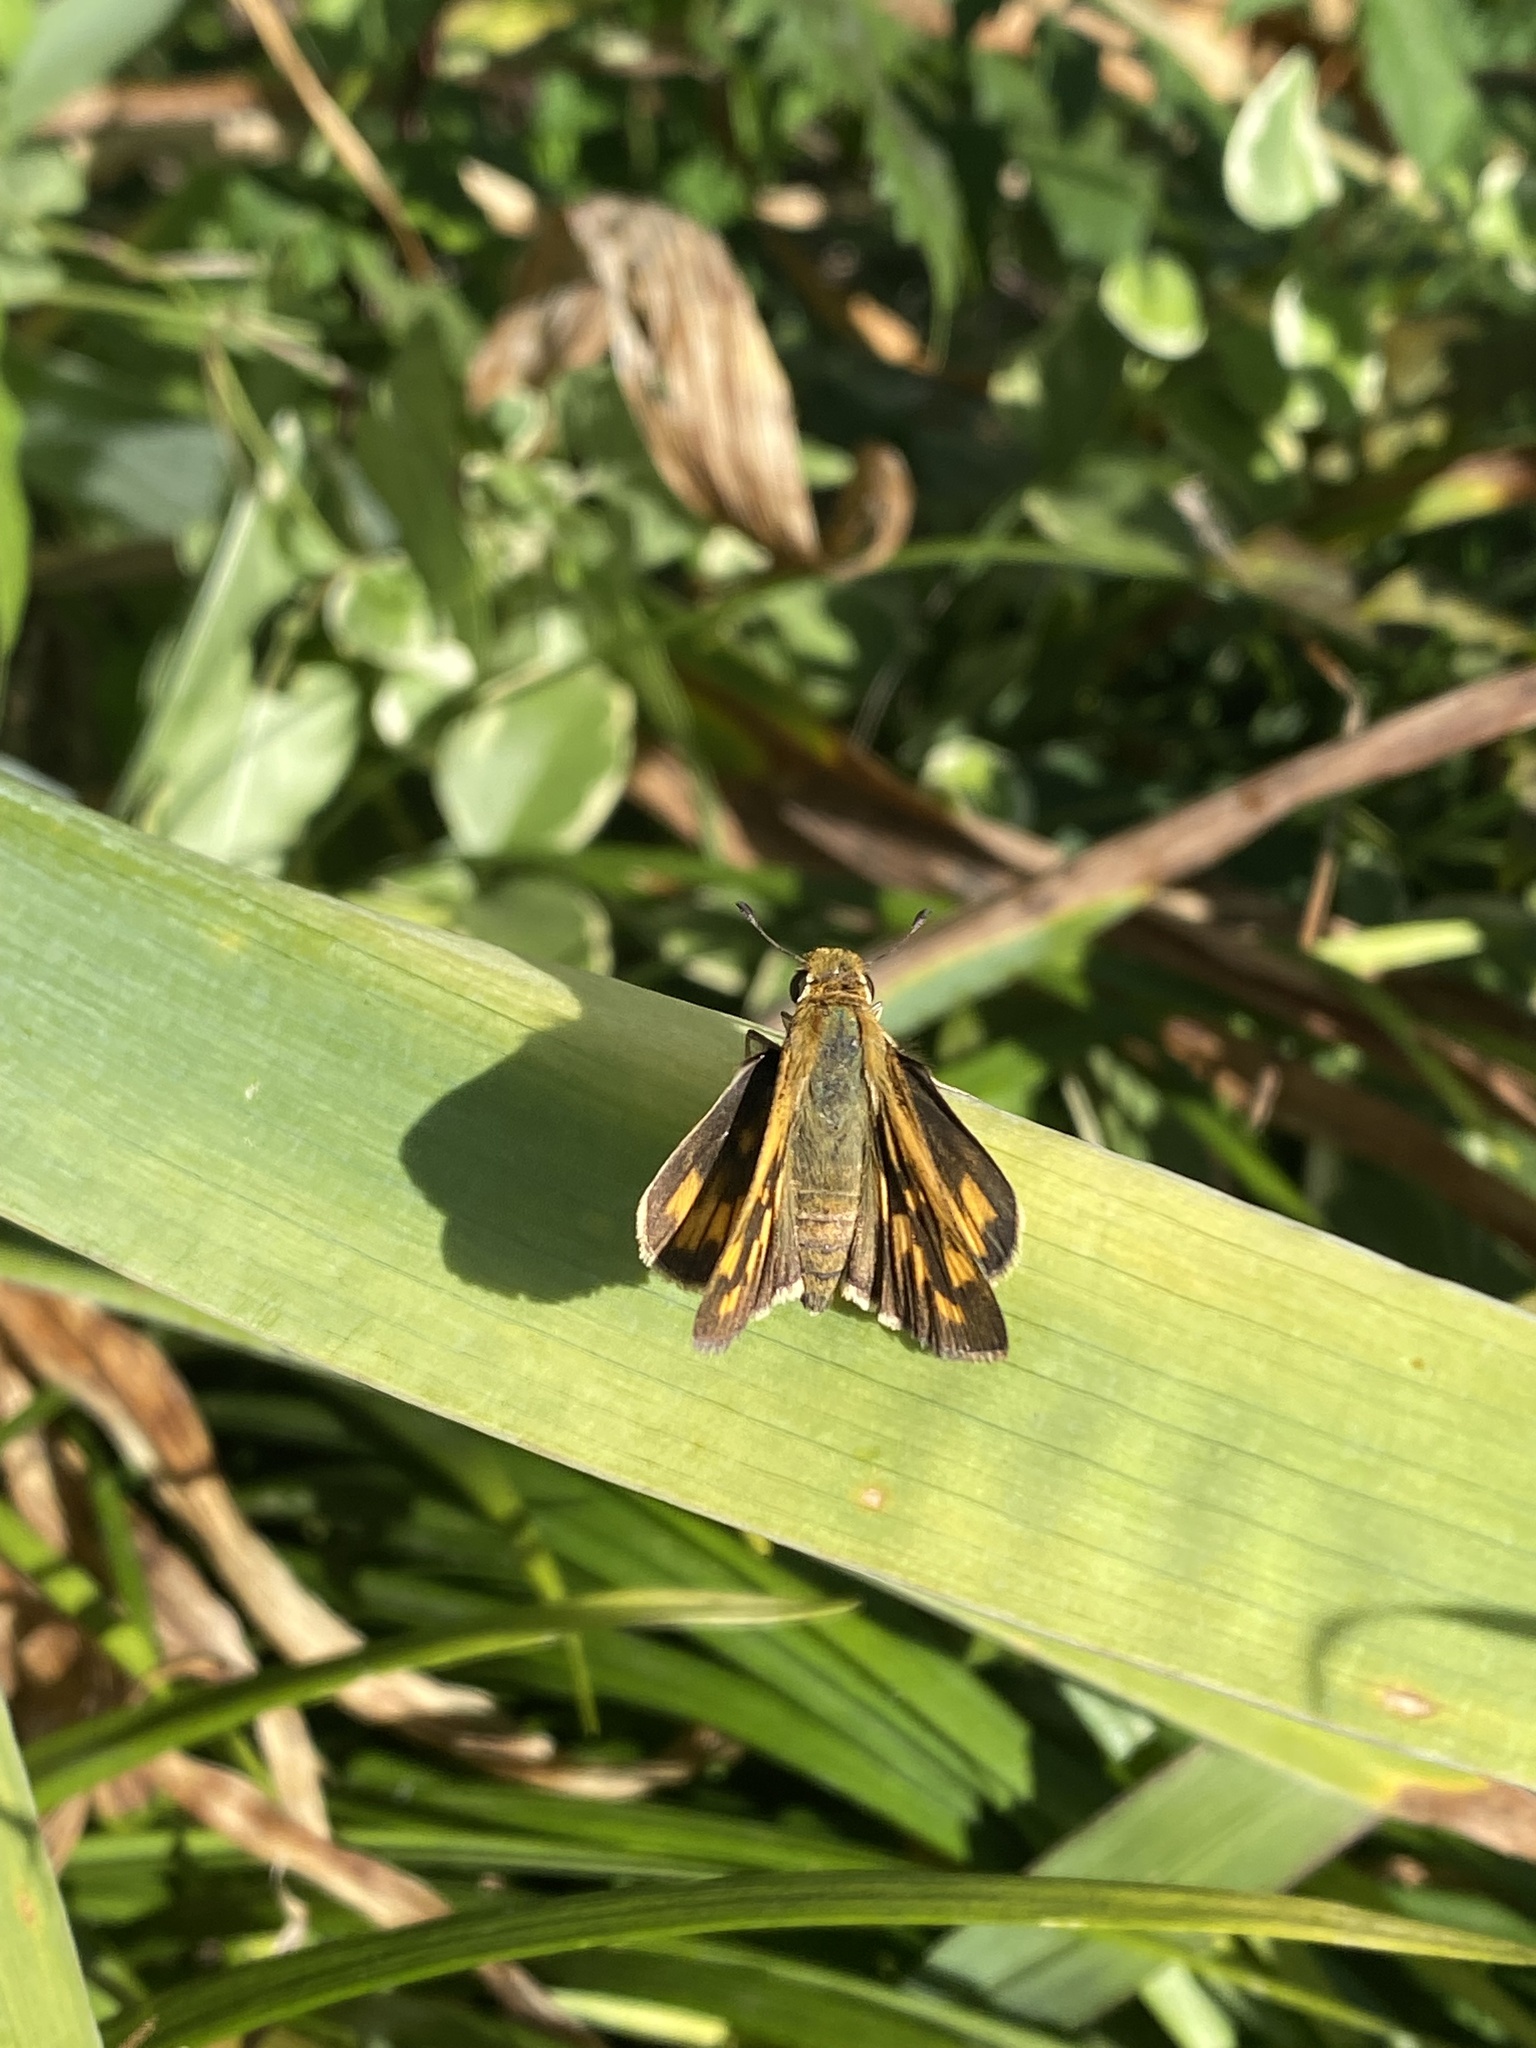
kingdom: Animalia
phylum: Arthropoda
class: Insecta
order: Lepidoptera
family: Hesperiidae
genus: Polites
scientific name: Polites coras
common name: Peck's skipper
